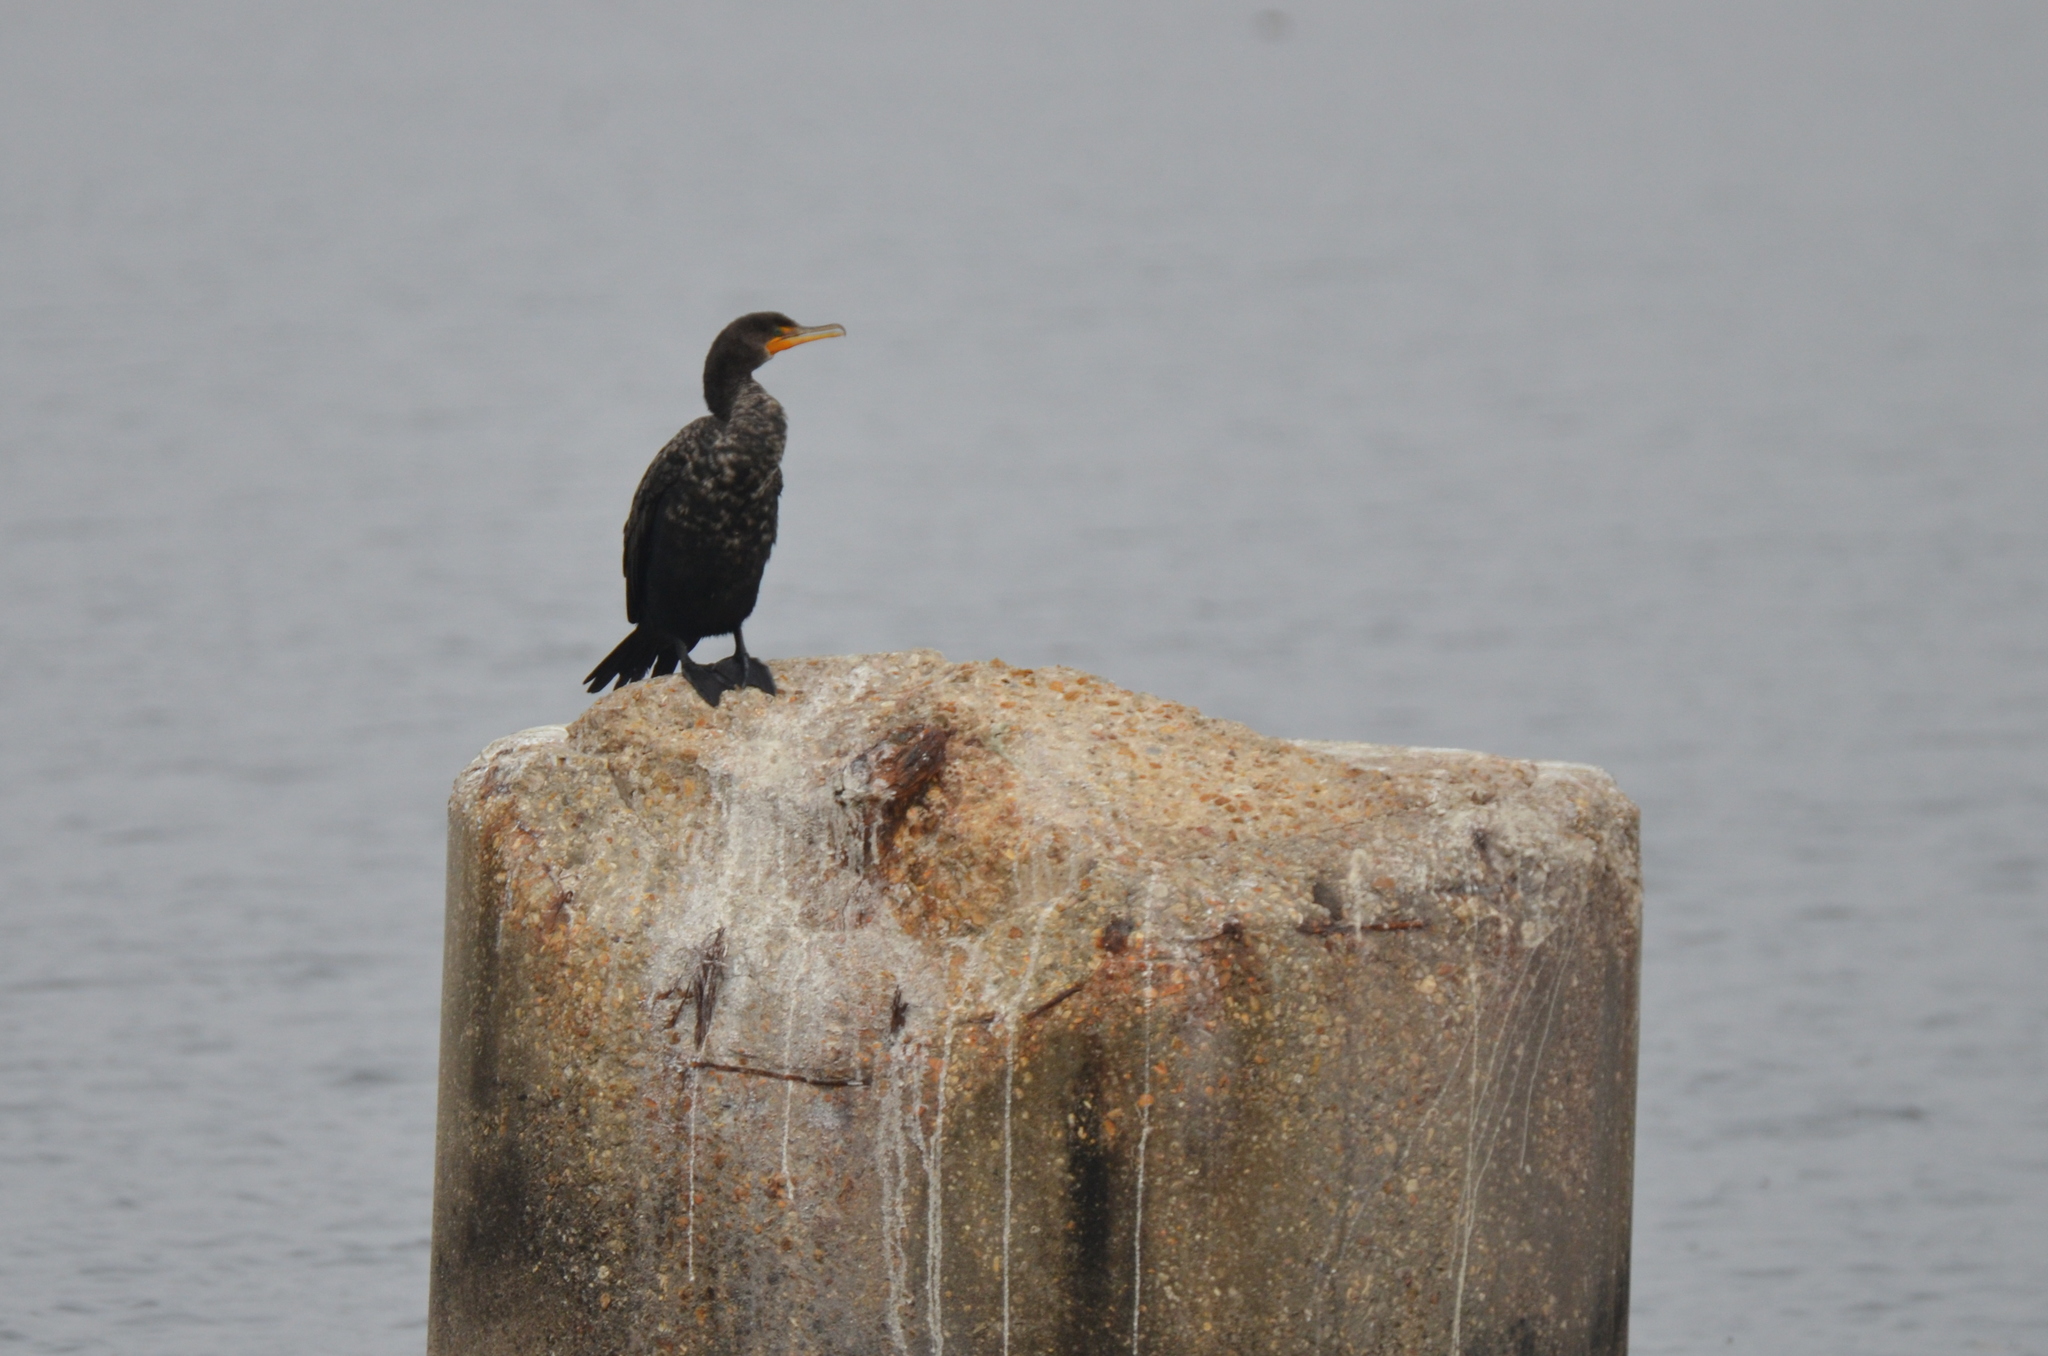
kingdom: Animalia
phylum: Chordata
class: Aves
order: Suliformes
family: Phalacrocoracidae
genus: Phalacrocorax
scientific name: Phalacrocorax auritus
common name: Double-crested cormorant
